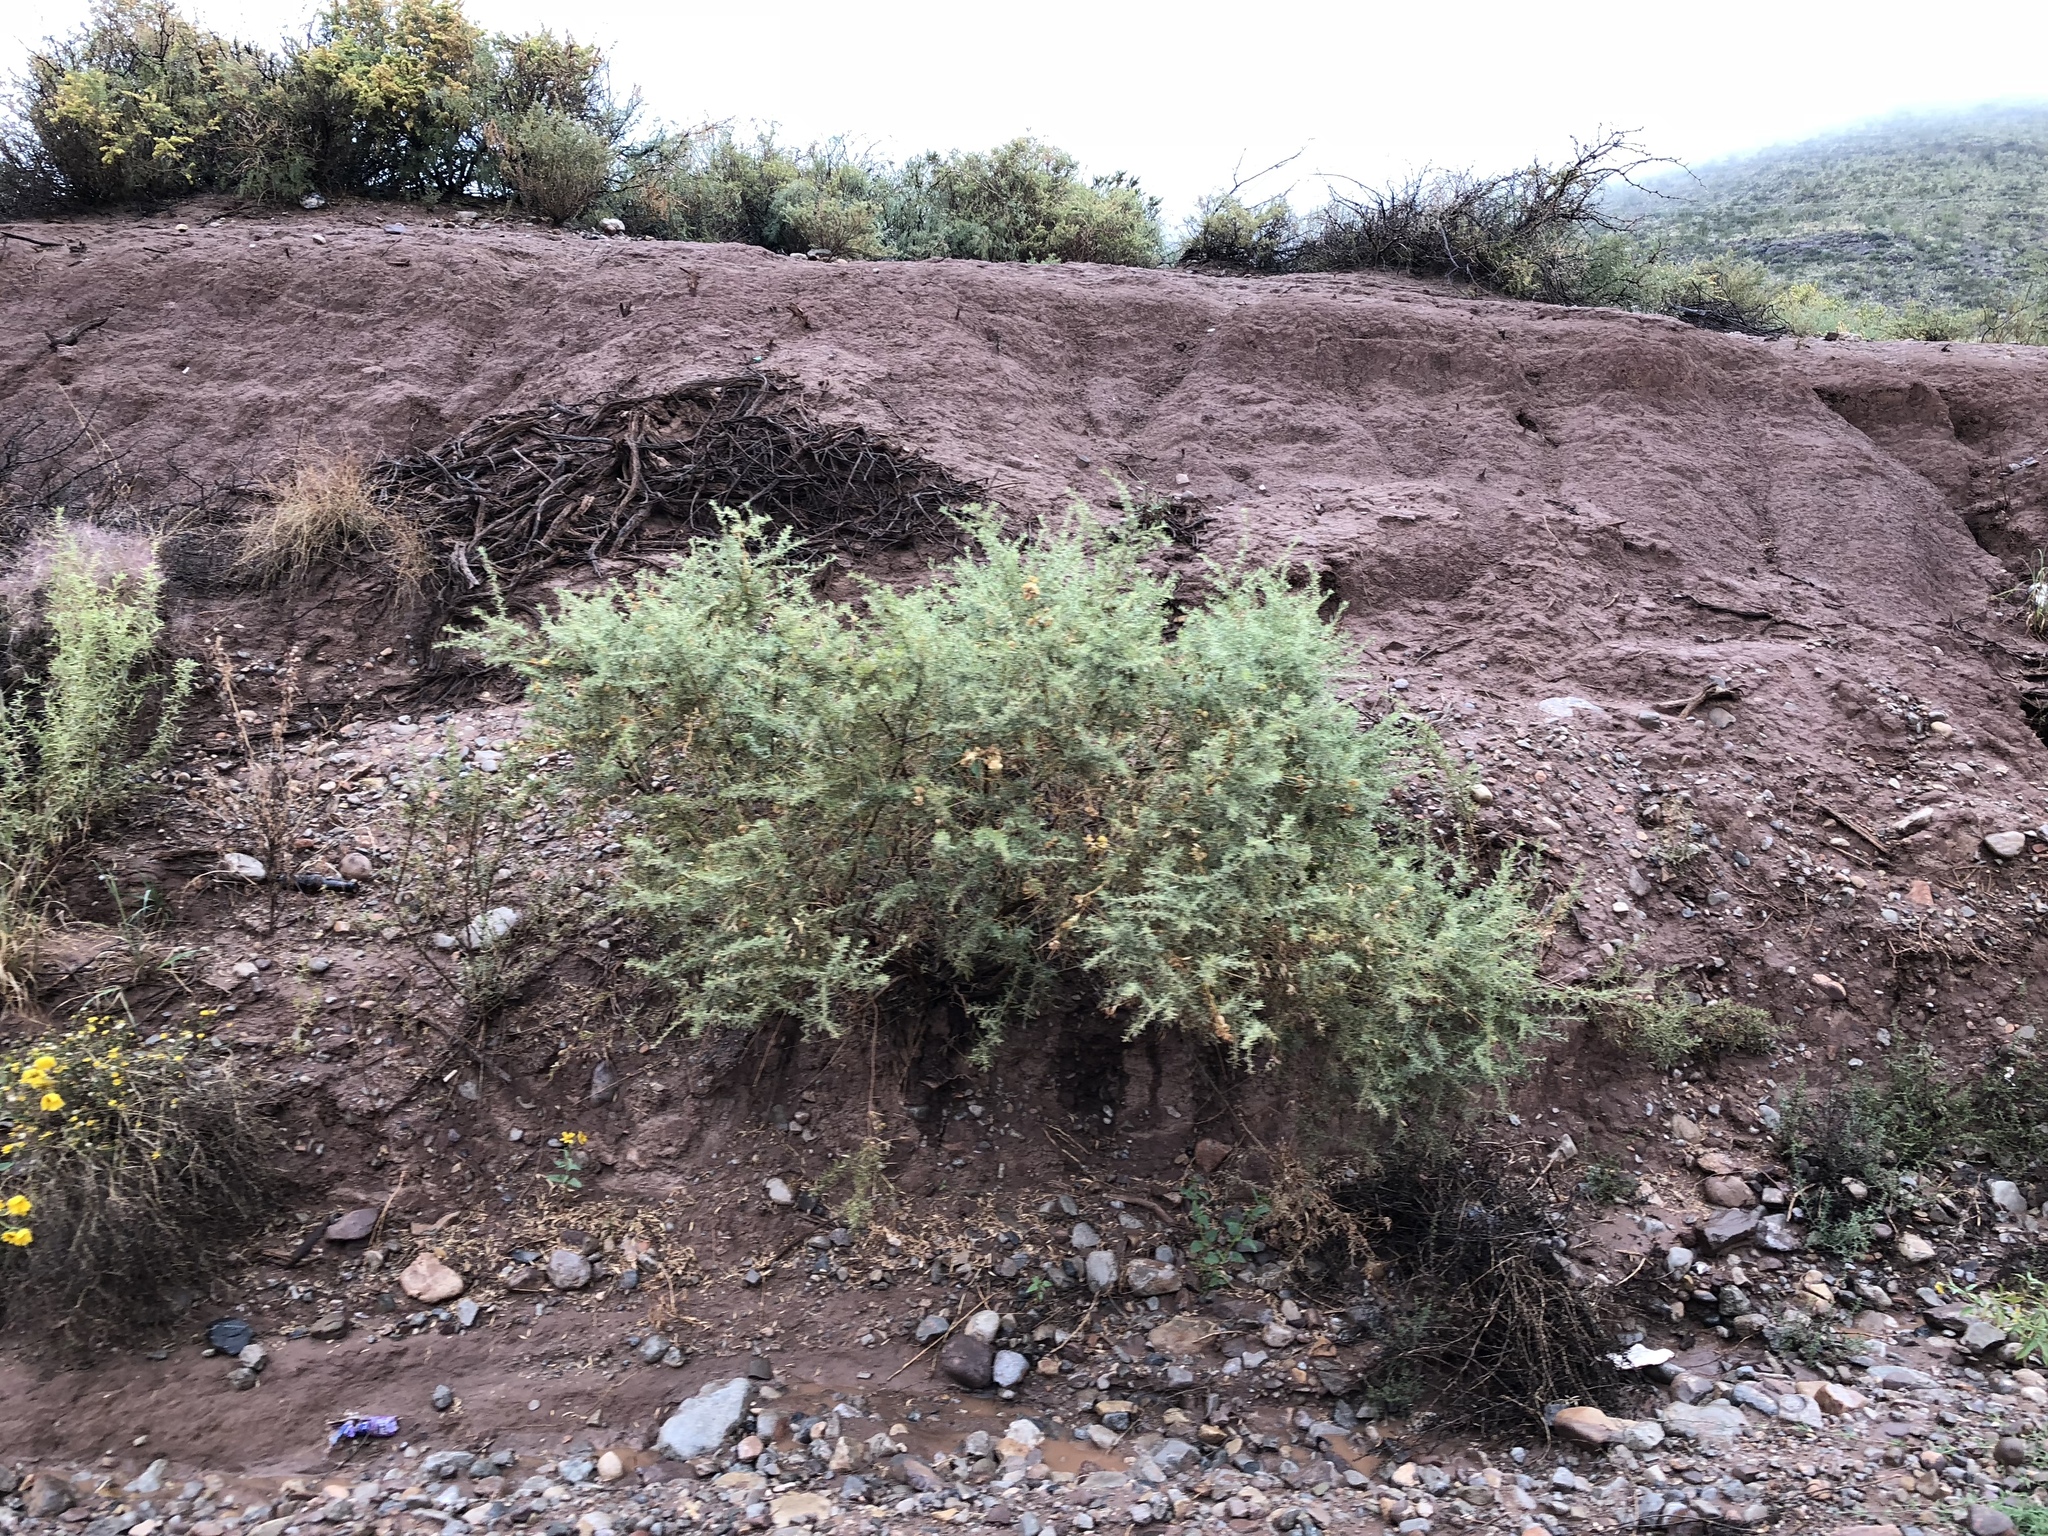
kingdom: Plantae
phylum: Tracheophyta
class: Magnoliopsida
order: Caryophyllales
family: Amaranthaceae
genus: Atriplex
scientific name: Atriplex canescens
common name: Four-wing saltbush
